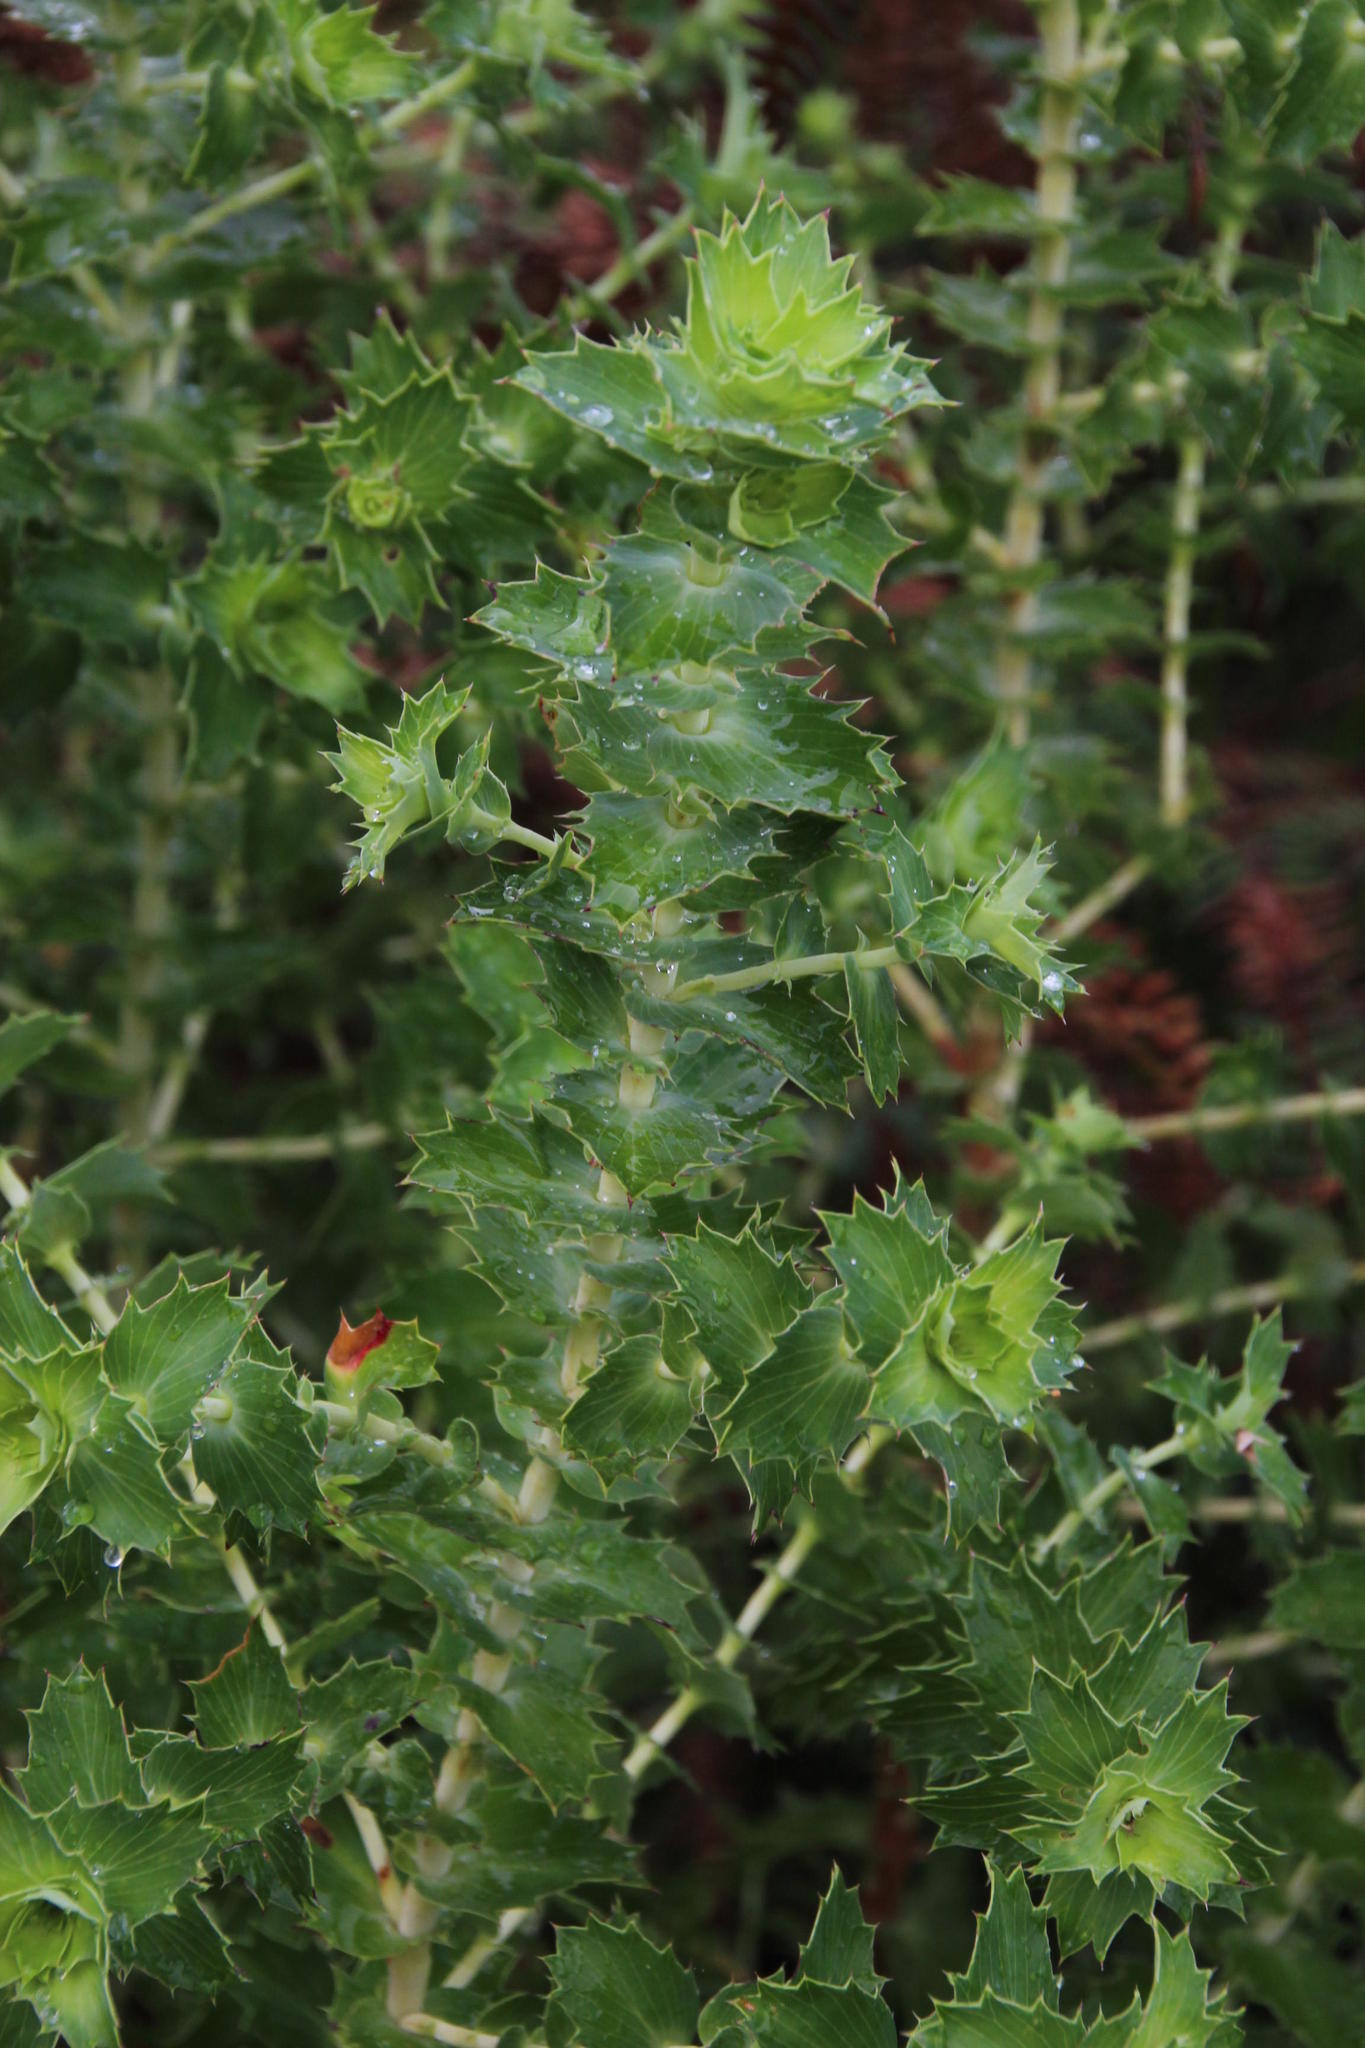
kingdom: Plantae
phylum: Tracheophyta
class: Magnoliopsida
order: Rosales
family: Rosaceae
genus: Cliffortia
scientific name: Cliffortia ilicifolia
